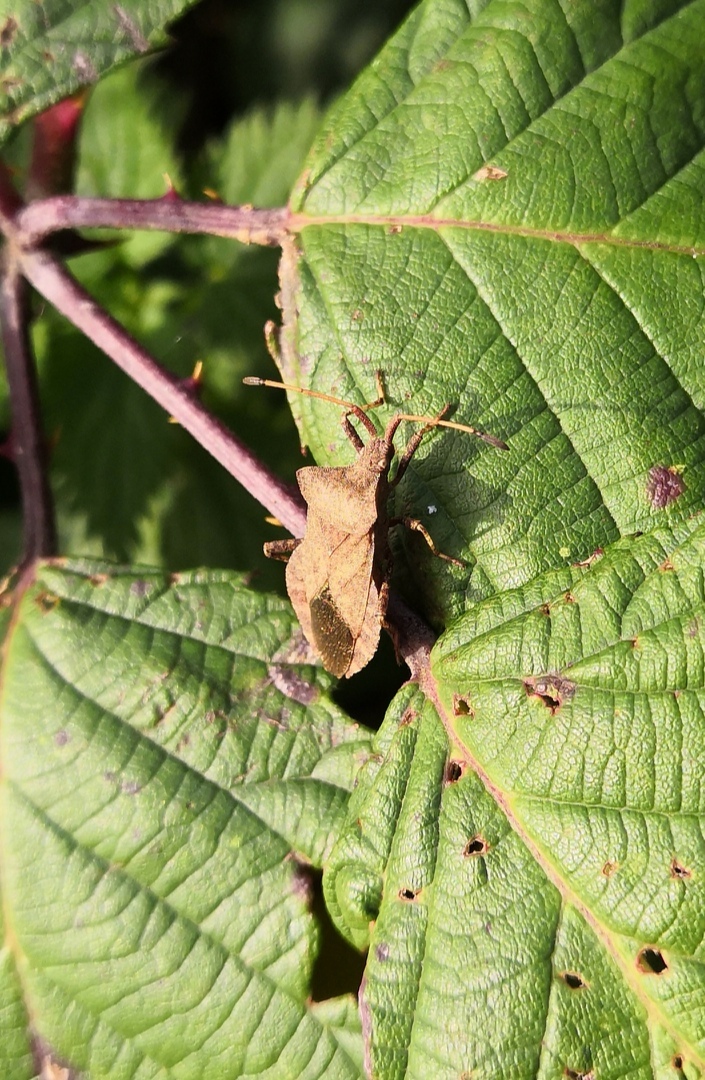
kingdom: Animalia
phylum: Arthropoda
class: Insecta
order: Hemiptera
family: Coreidae
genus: Coreus
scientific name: Coreus marginatus
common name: Dock bug
